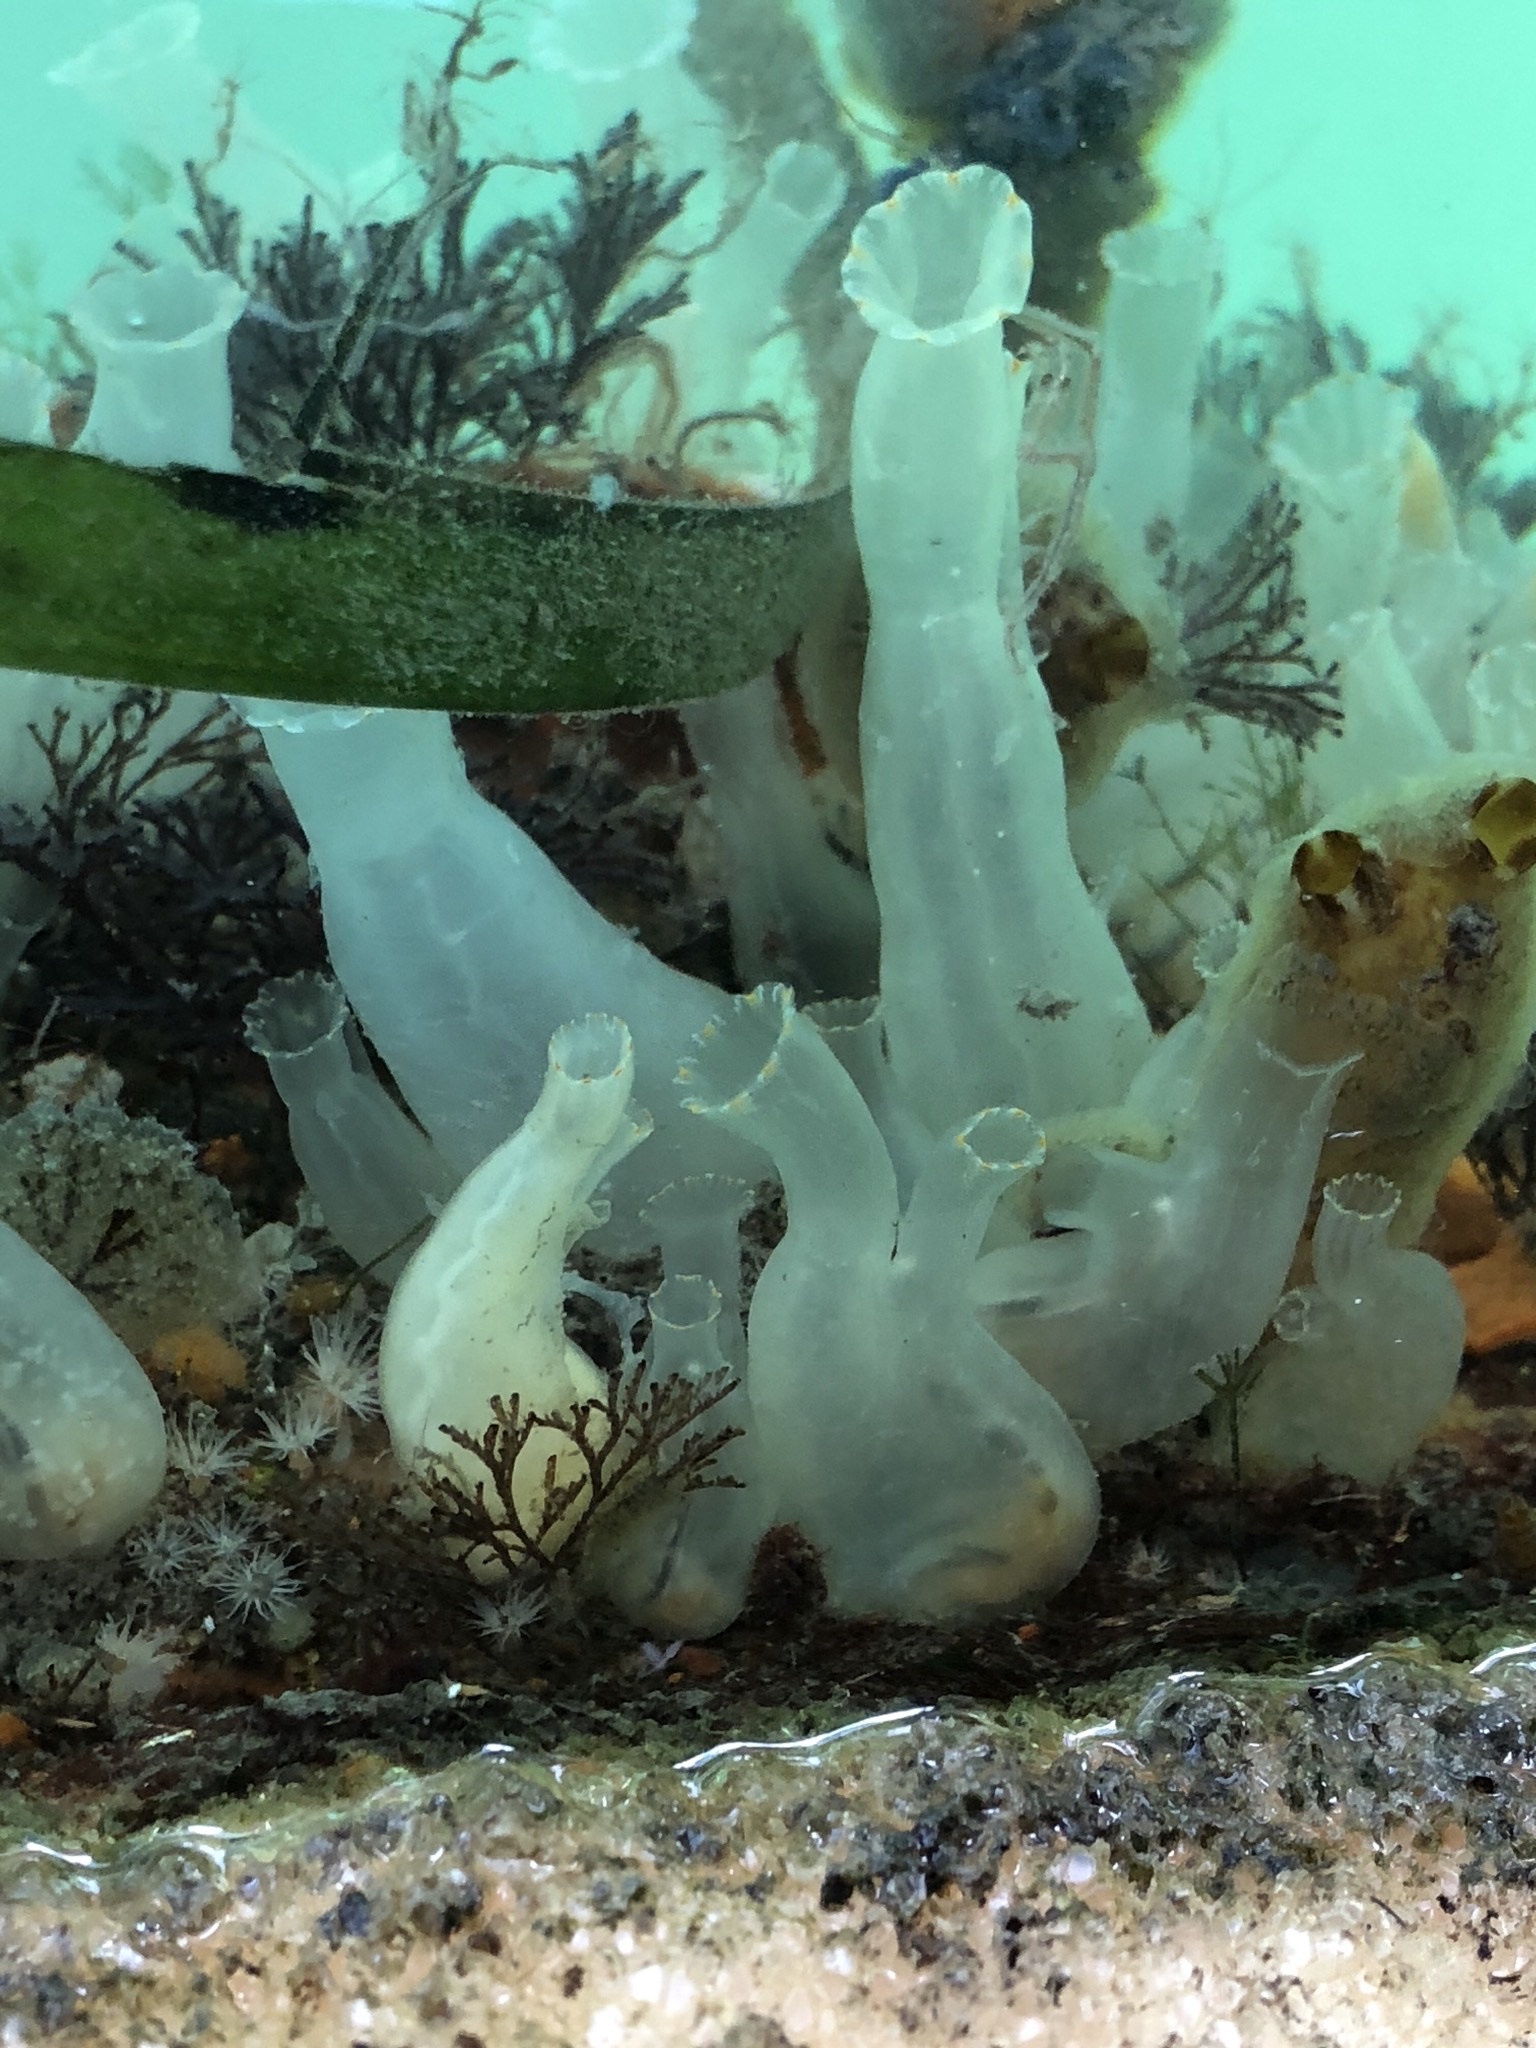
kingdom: Animalia
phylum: Chordata
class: Ascidiacea
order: Phlebobranchia
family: Cionidae
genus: Ciona
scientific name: Ciona savignyi
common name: Tunicate
